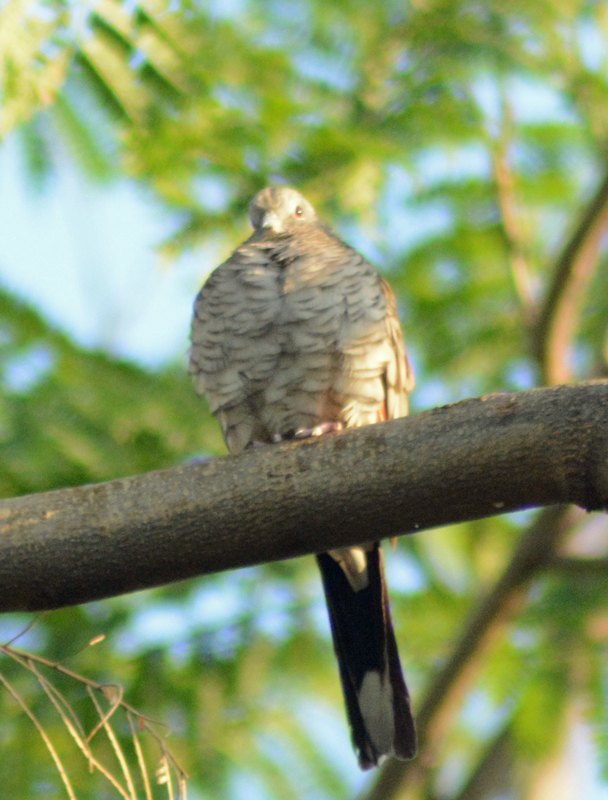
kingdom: Animalia
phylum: Chordata
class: Aves
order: Columbiformes
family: Columbidae
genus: Columbina
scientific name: Columbina inca
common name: Inca dove
